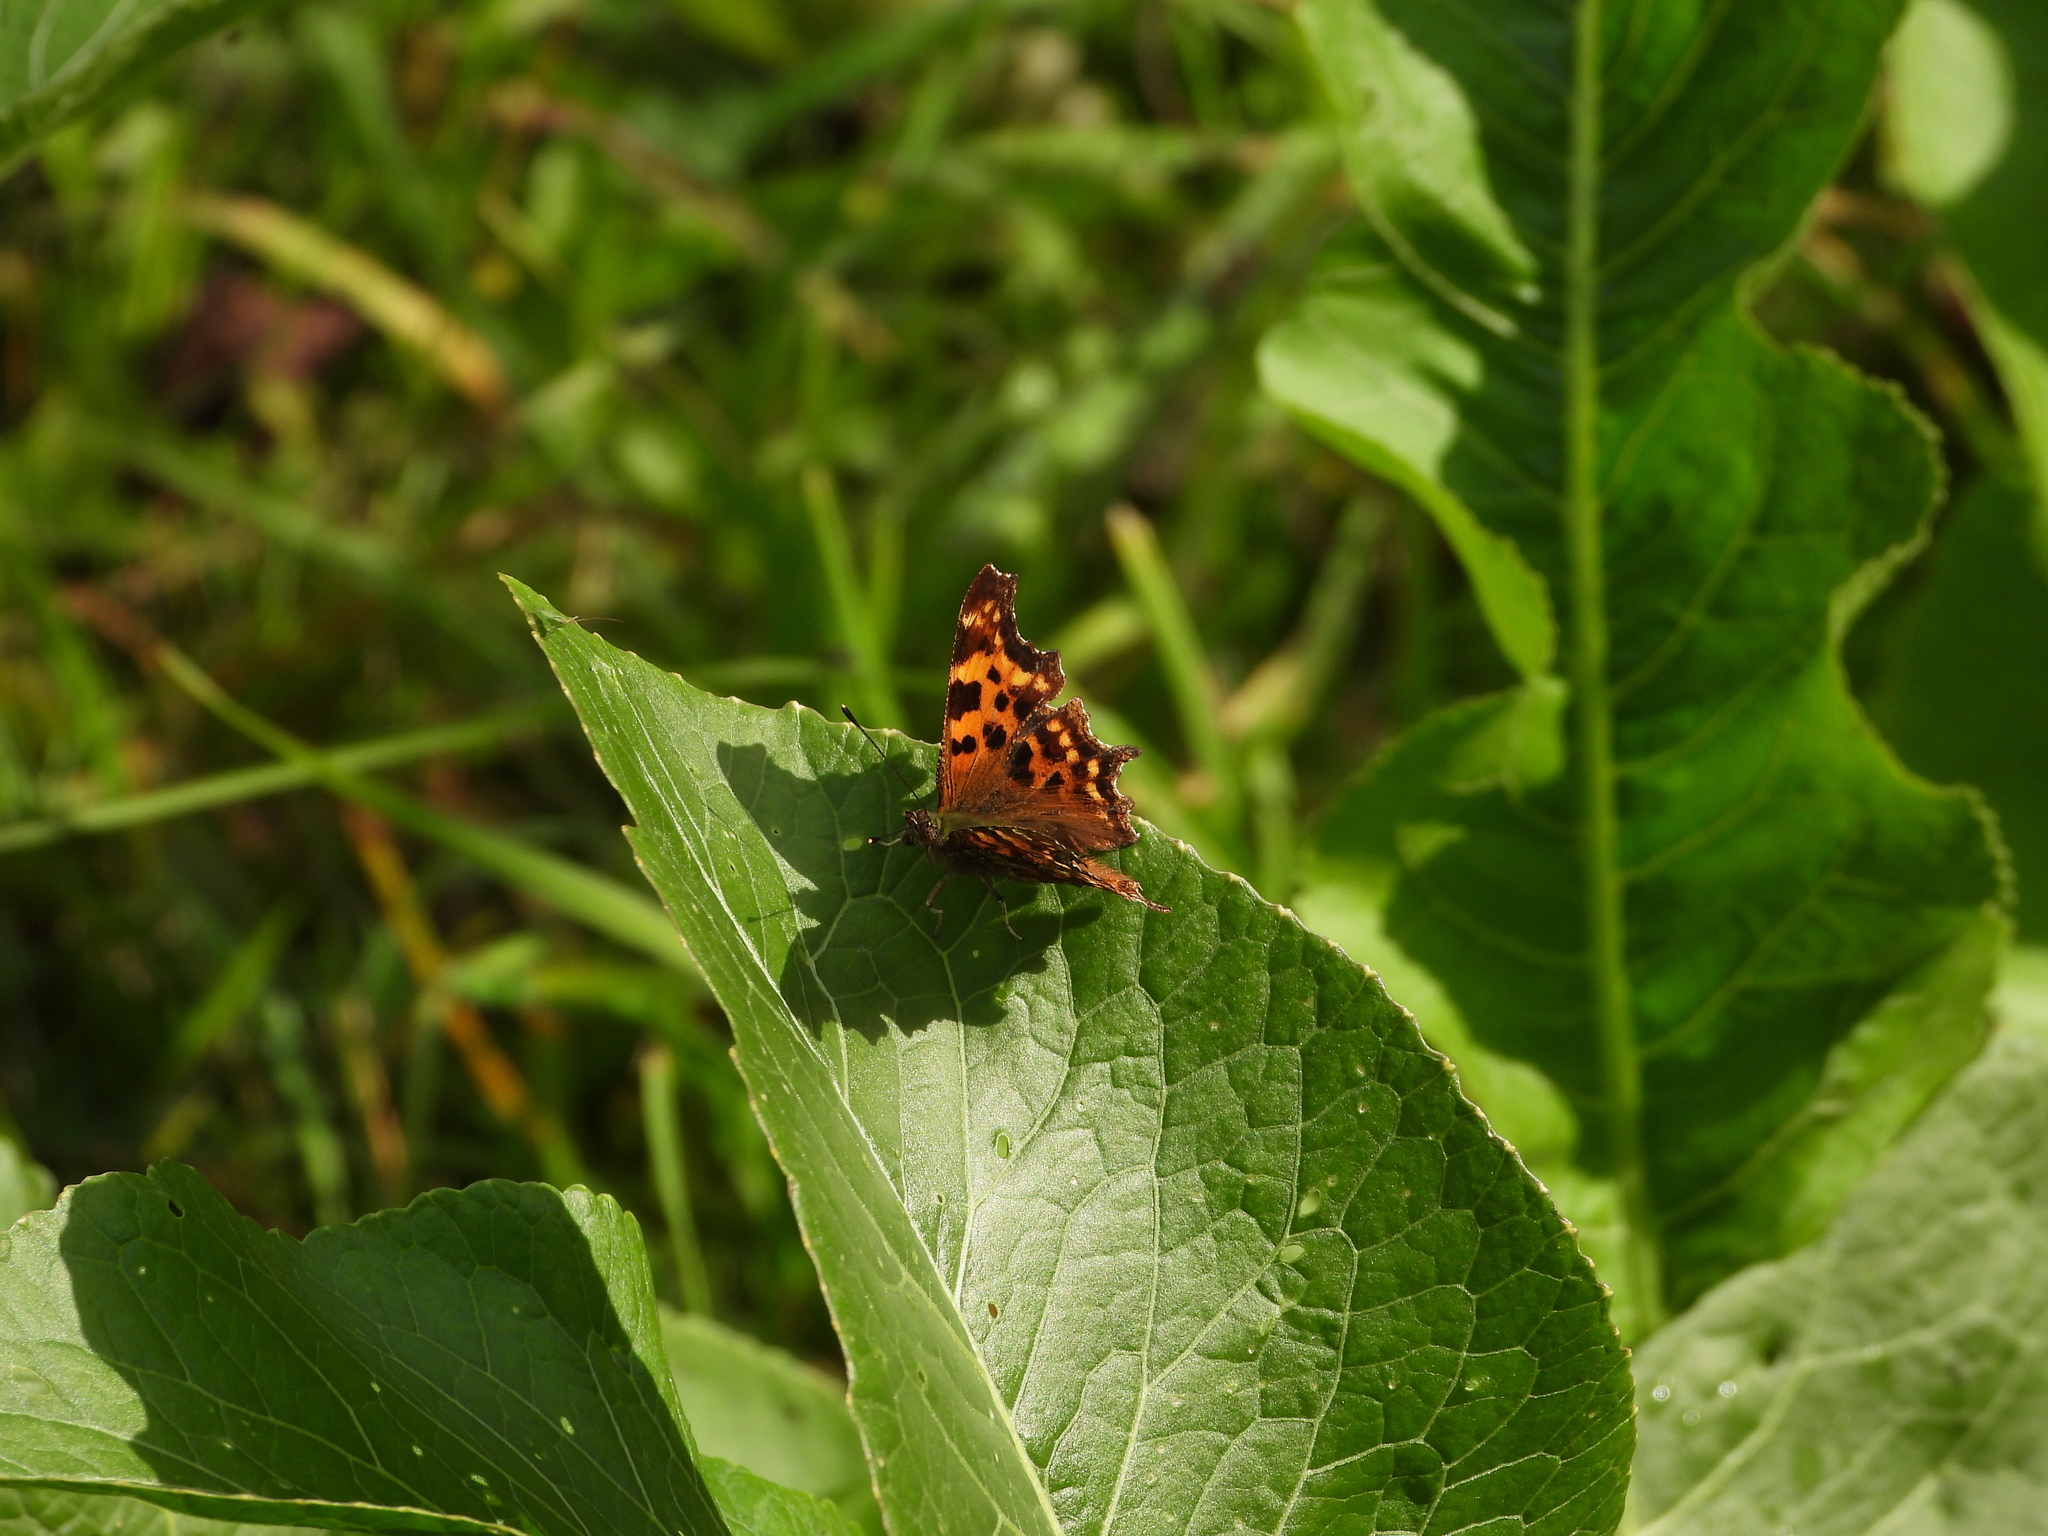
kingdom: Animalia
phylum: Arthropoda
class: Insecta
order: Lepidoptera
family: Nymphalidae
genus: Polygonia
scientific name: Polygonia c-album
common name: Comma
